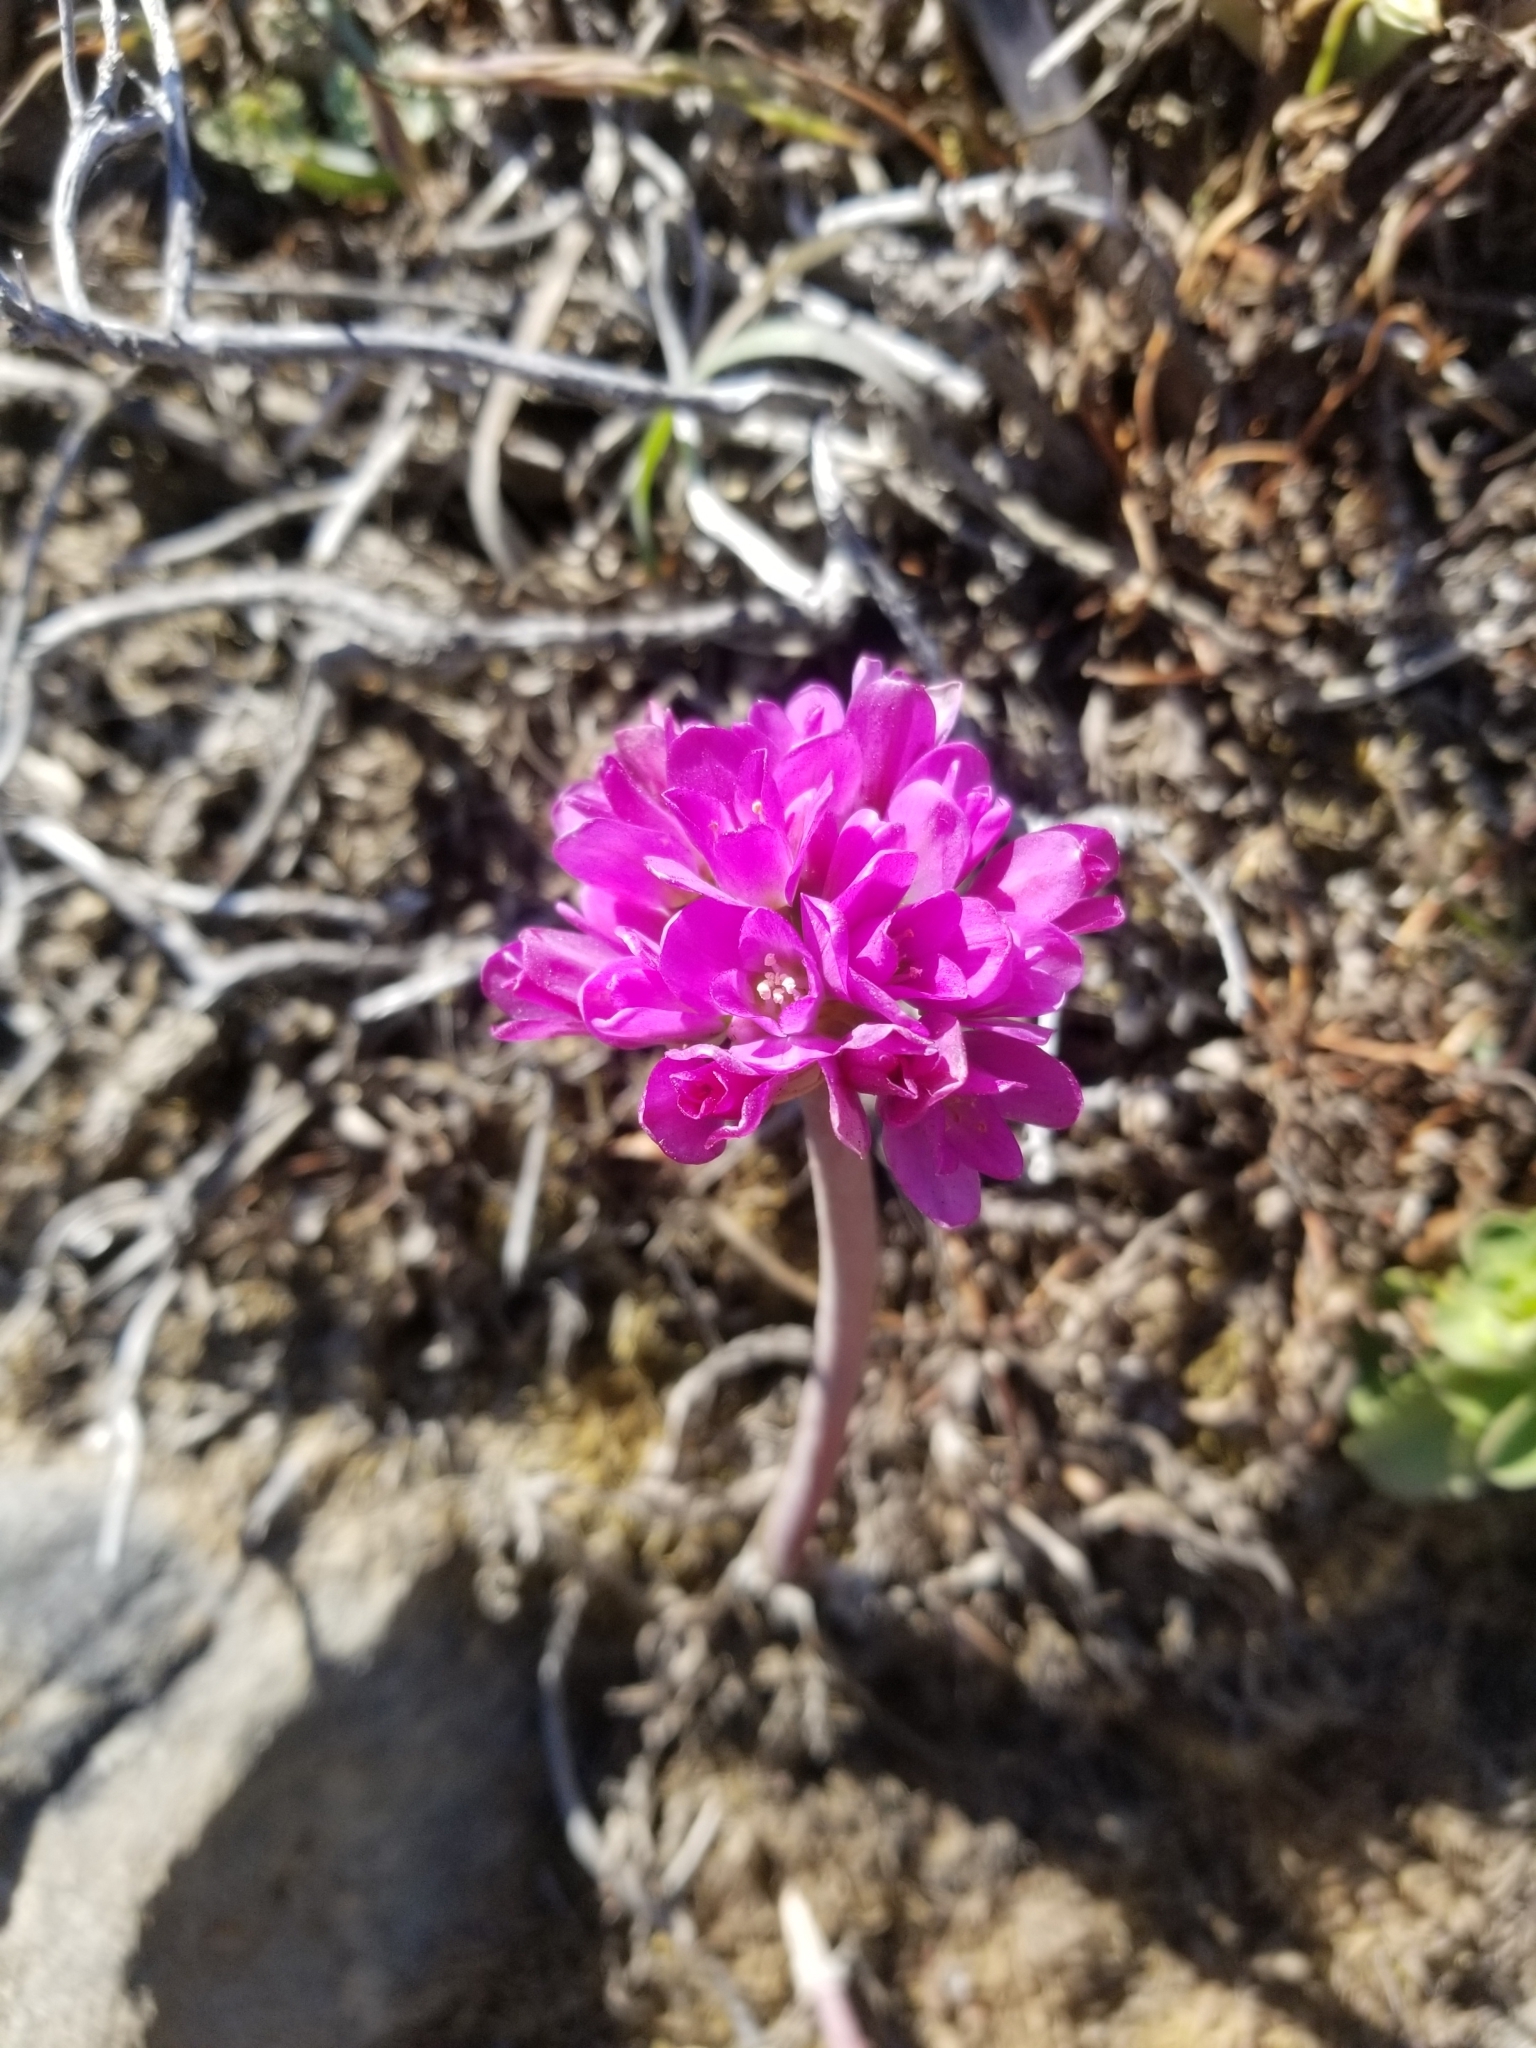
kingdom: Plantae
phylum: Tracheophyta
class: Liliopsida
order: Asparagales
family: Amaryllidaceae
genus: Allium
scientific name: Allium dichlamydeum
